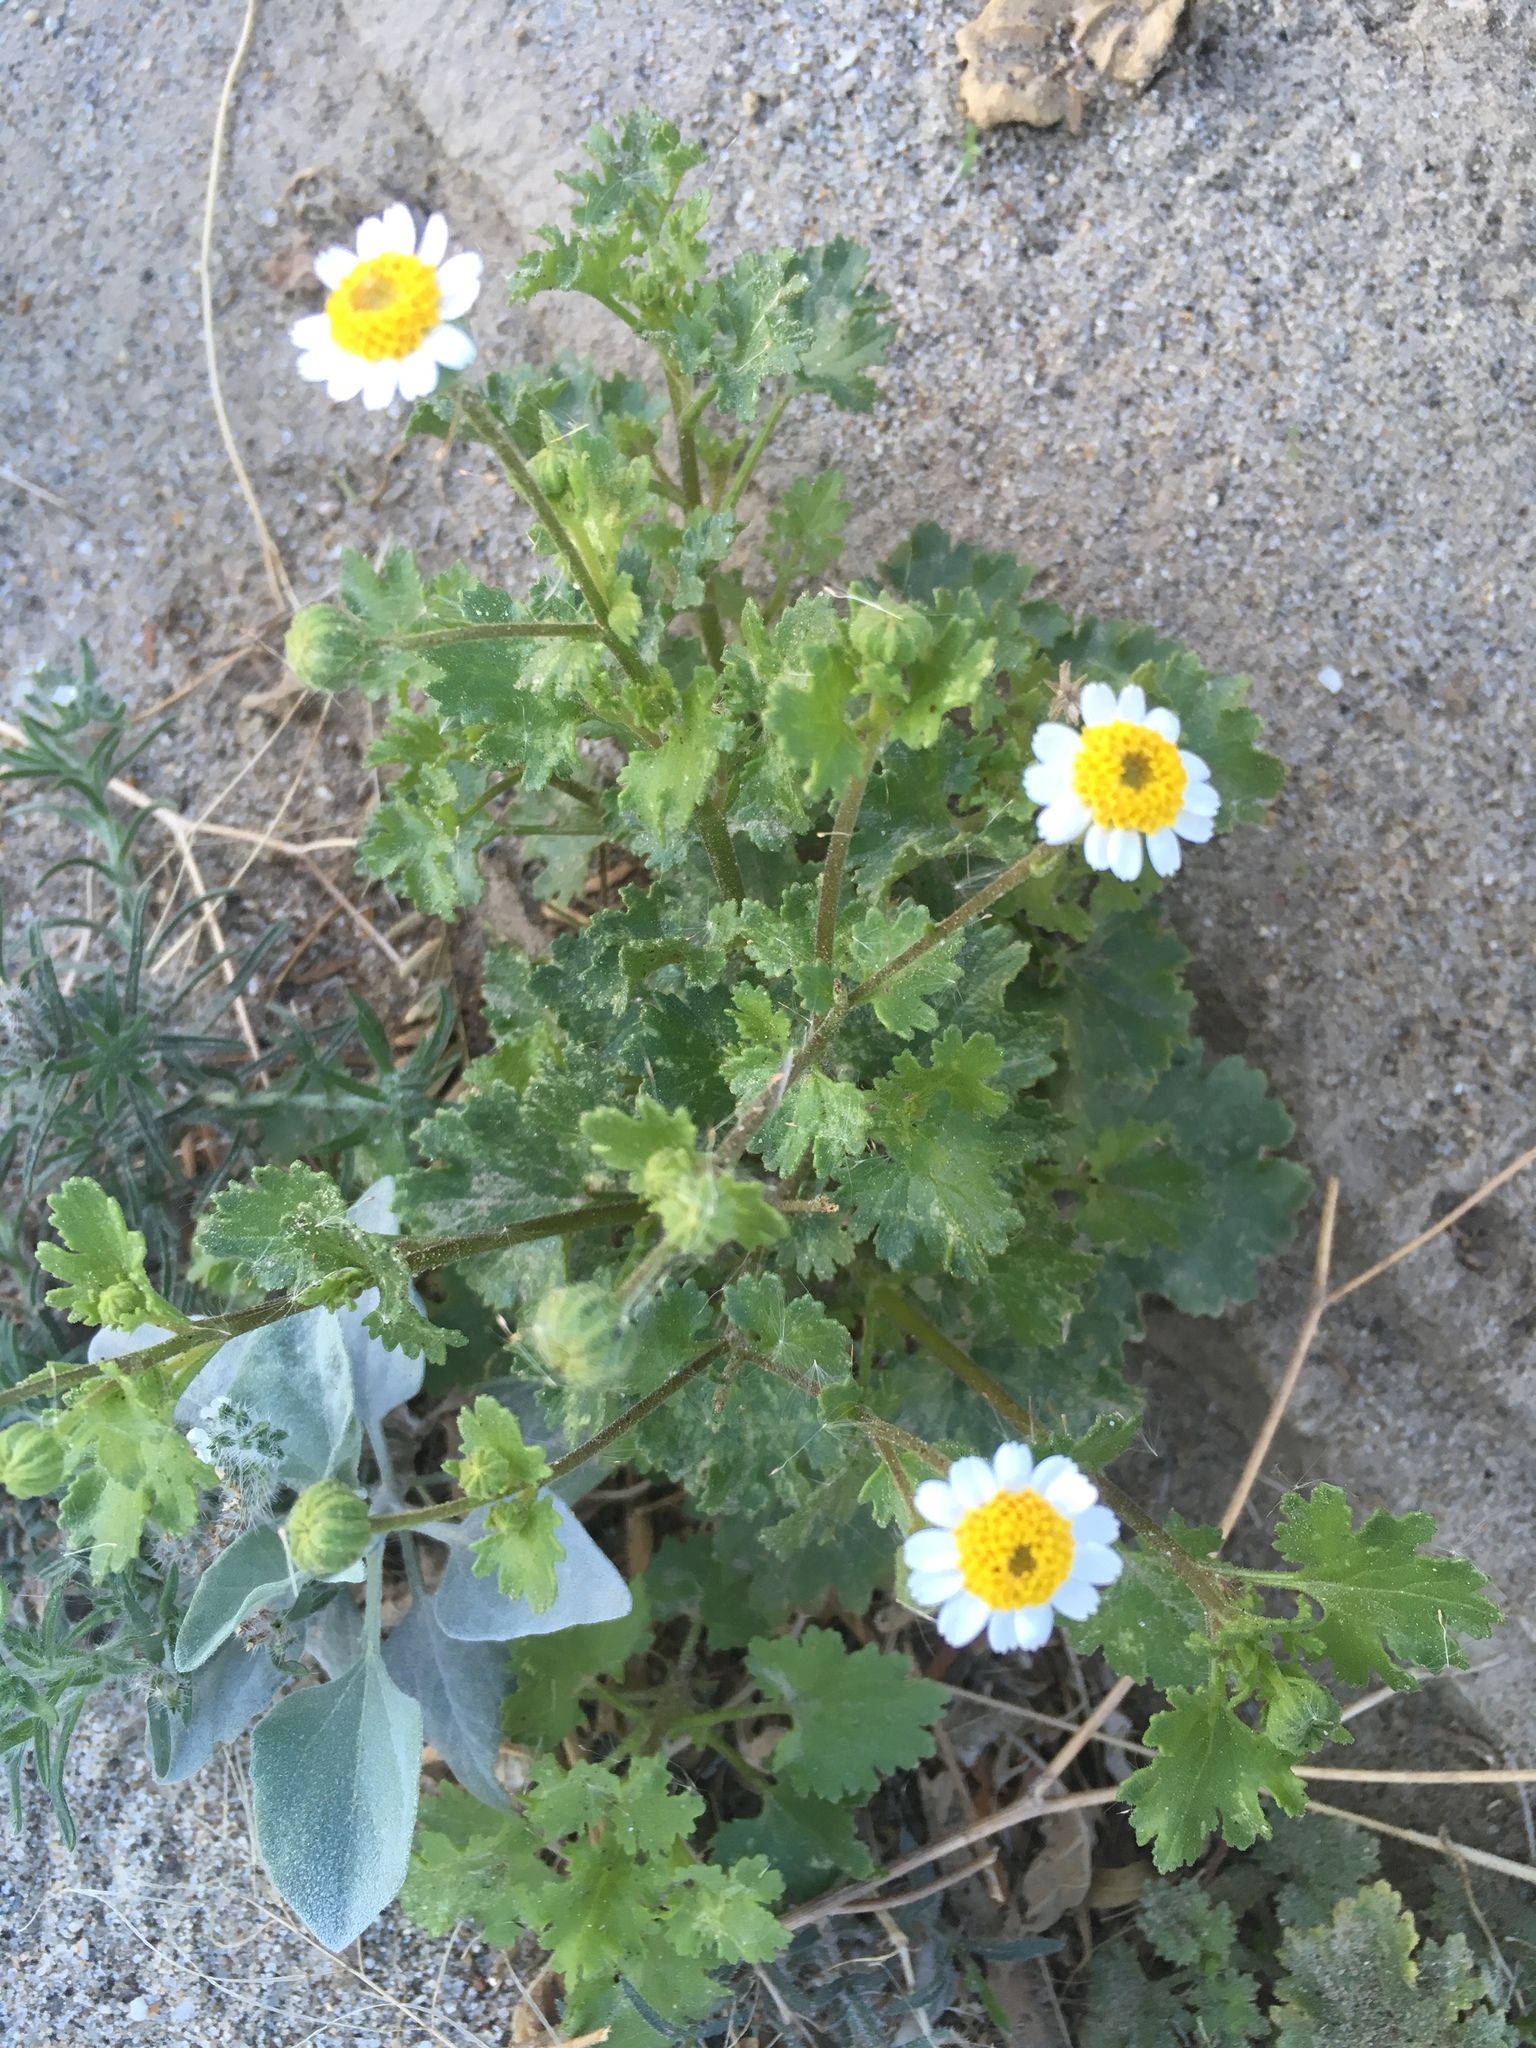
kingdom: Plantae
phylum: Tracheophyta
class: Magnoliopsida
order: Asterales
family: Asteraceae
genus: Laphamia
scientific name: Laphamia emoryi
